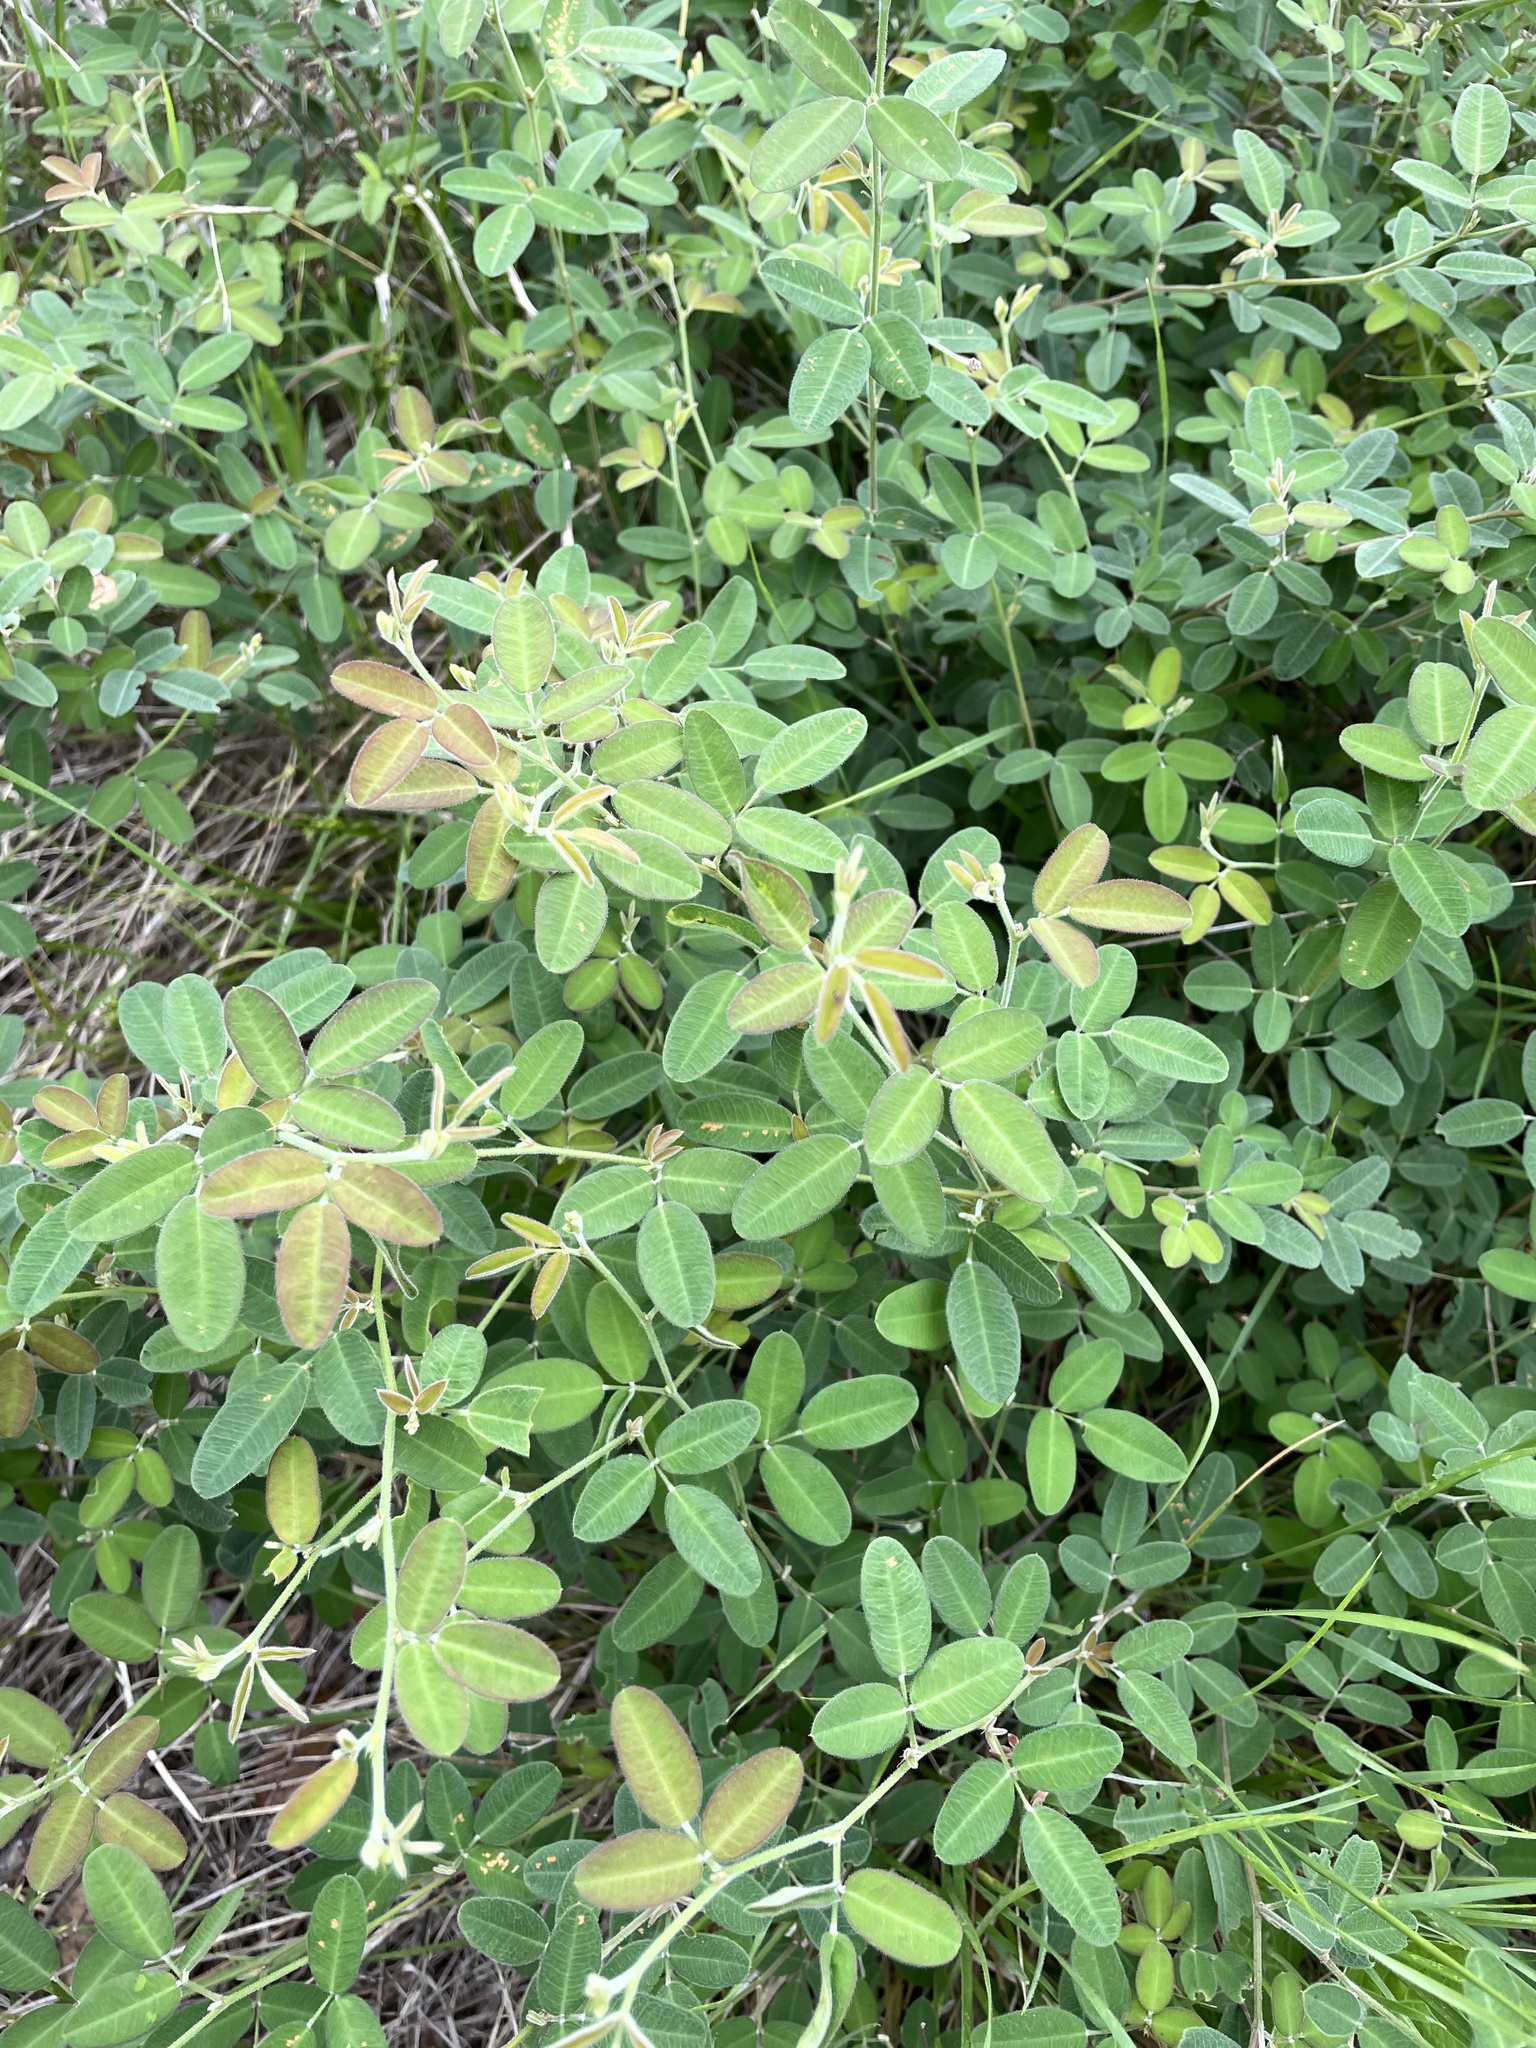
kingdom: Plantae
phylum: Tracheophyta
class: Magnoliopsida
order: Fabales
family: Fabaceae
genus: Lespedeza
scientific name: Lespedeza texana
